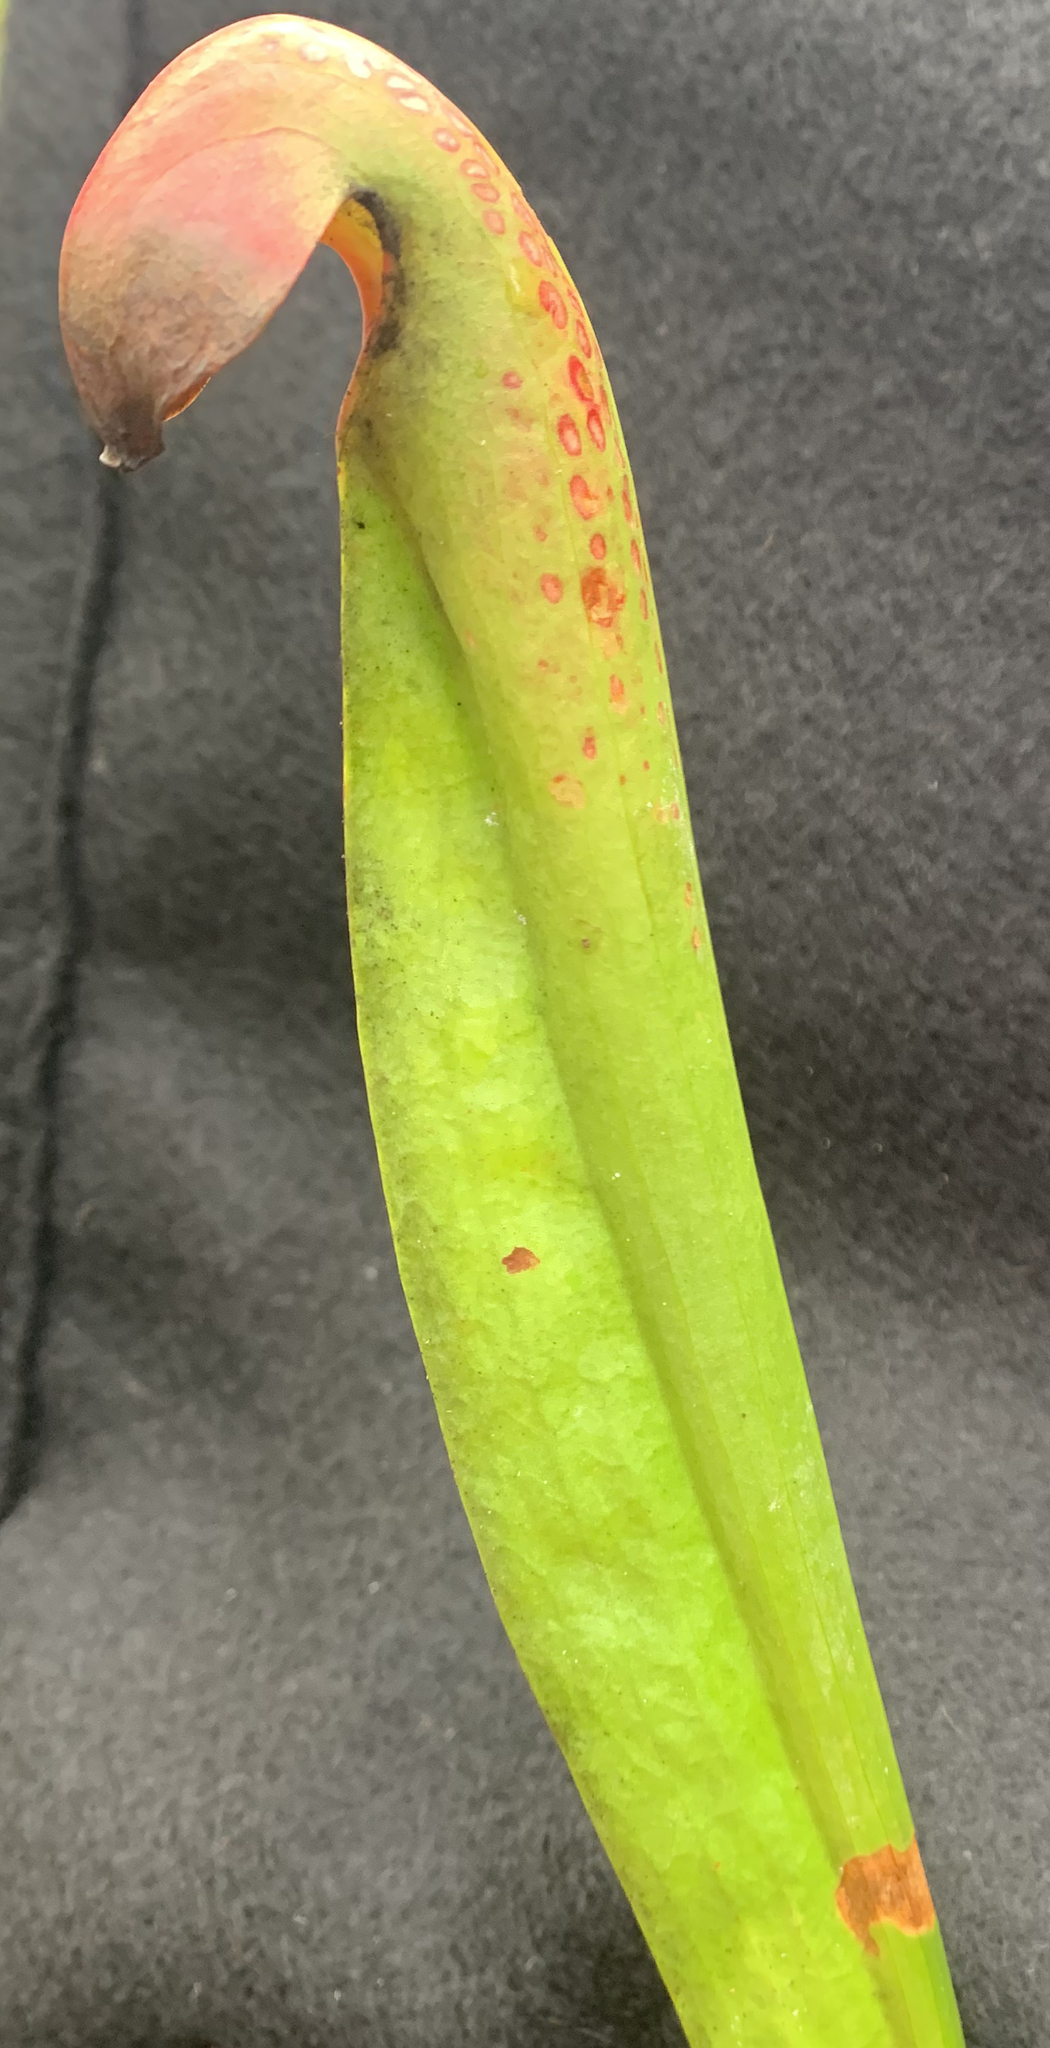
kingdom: Plantae
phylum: Tracheophyta
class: Magnoliopsida
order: Ericales
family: Sarraceniaceae
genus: Sarracenia
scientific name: Sarracenia minor
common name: Rainhat-trumpet
